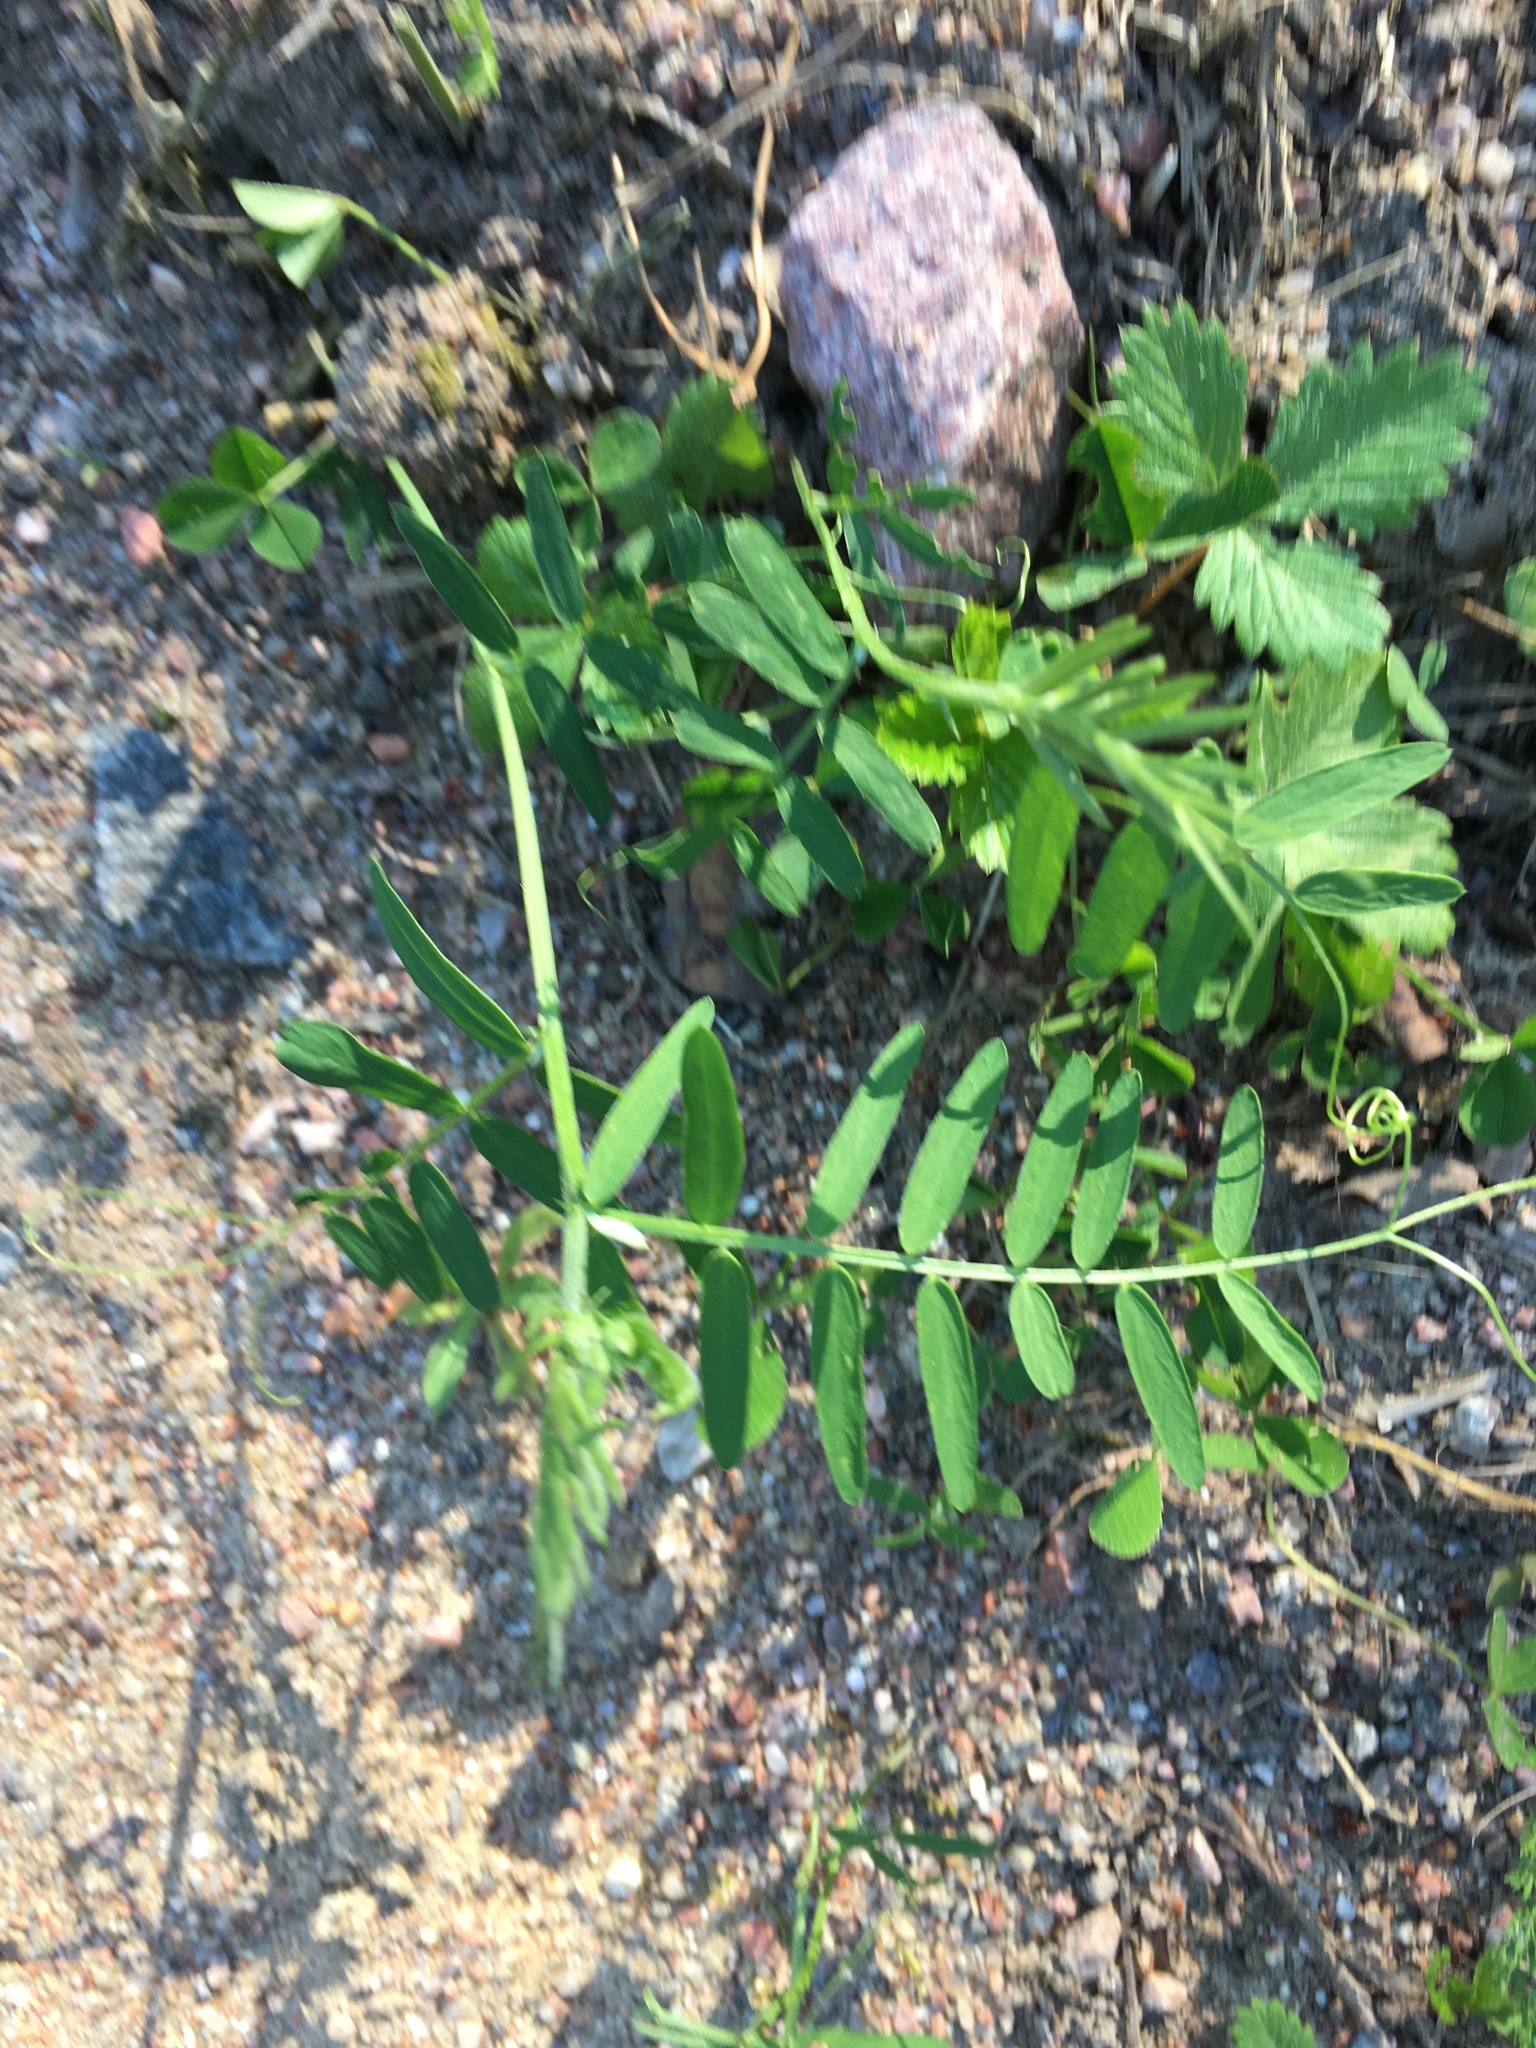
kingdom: Plantae
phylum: Tracheophyta
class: Magnoliopsida
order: Fabales
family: Fabaceae
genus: Vicia
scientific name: Vicia cracca
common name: Bird vetch
